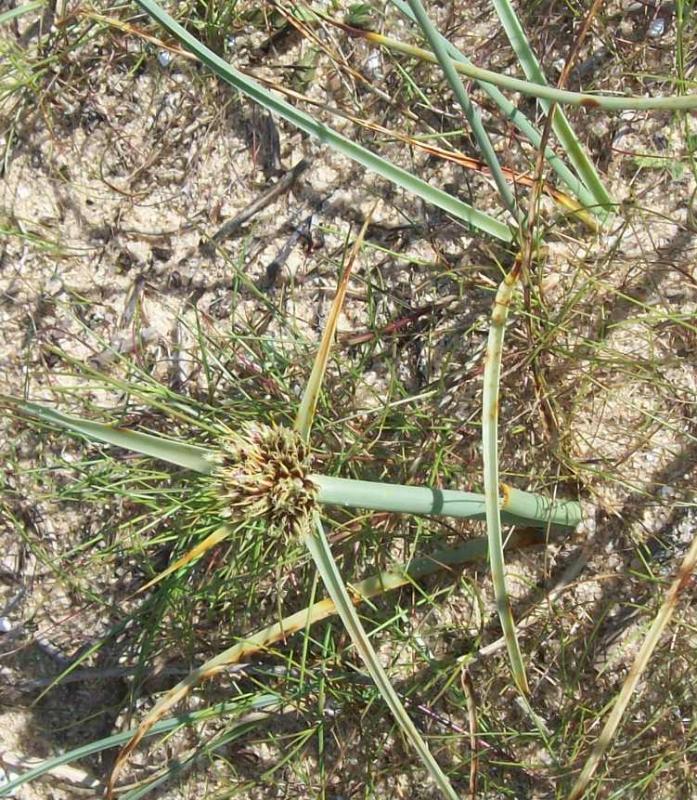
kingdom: Plantae
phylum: Tracheophyta
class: Liliopsida
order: Poales
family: Cyperaceae
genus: Cyperus
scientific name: Cyperus capitatus
